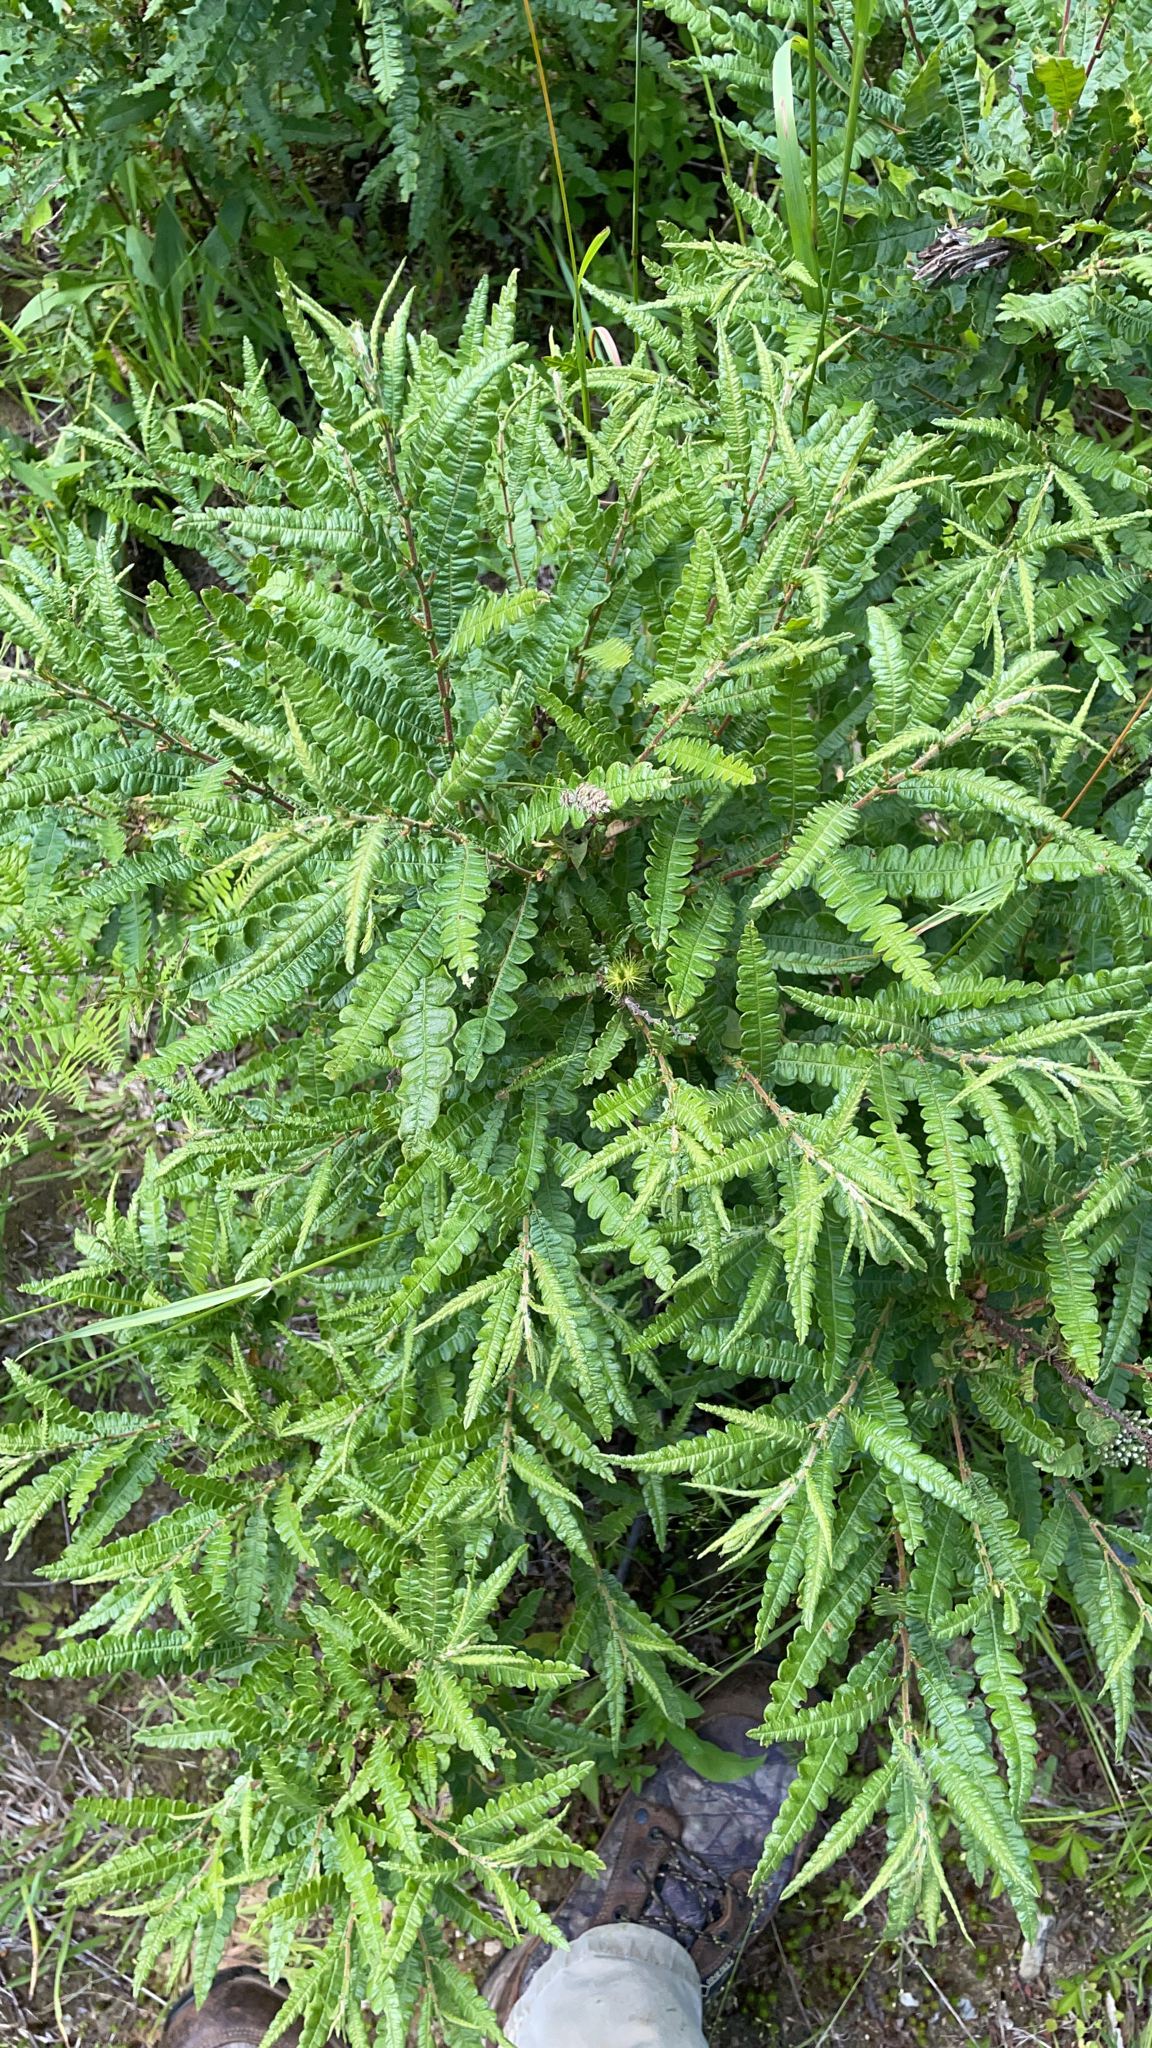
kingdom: Plantae
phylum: Tracheophyta
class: Magnoliopsida
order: Fagales
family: Myricaceae
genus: Comptonia
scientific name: Comptonia peregrina
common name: Sweet-fern
